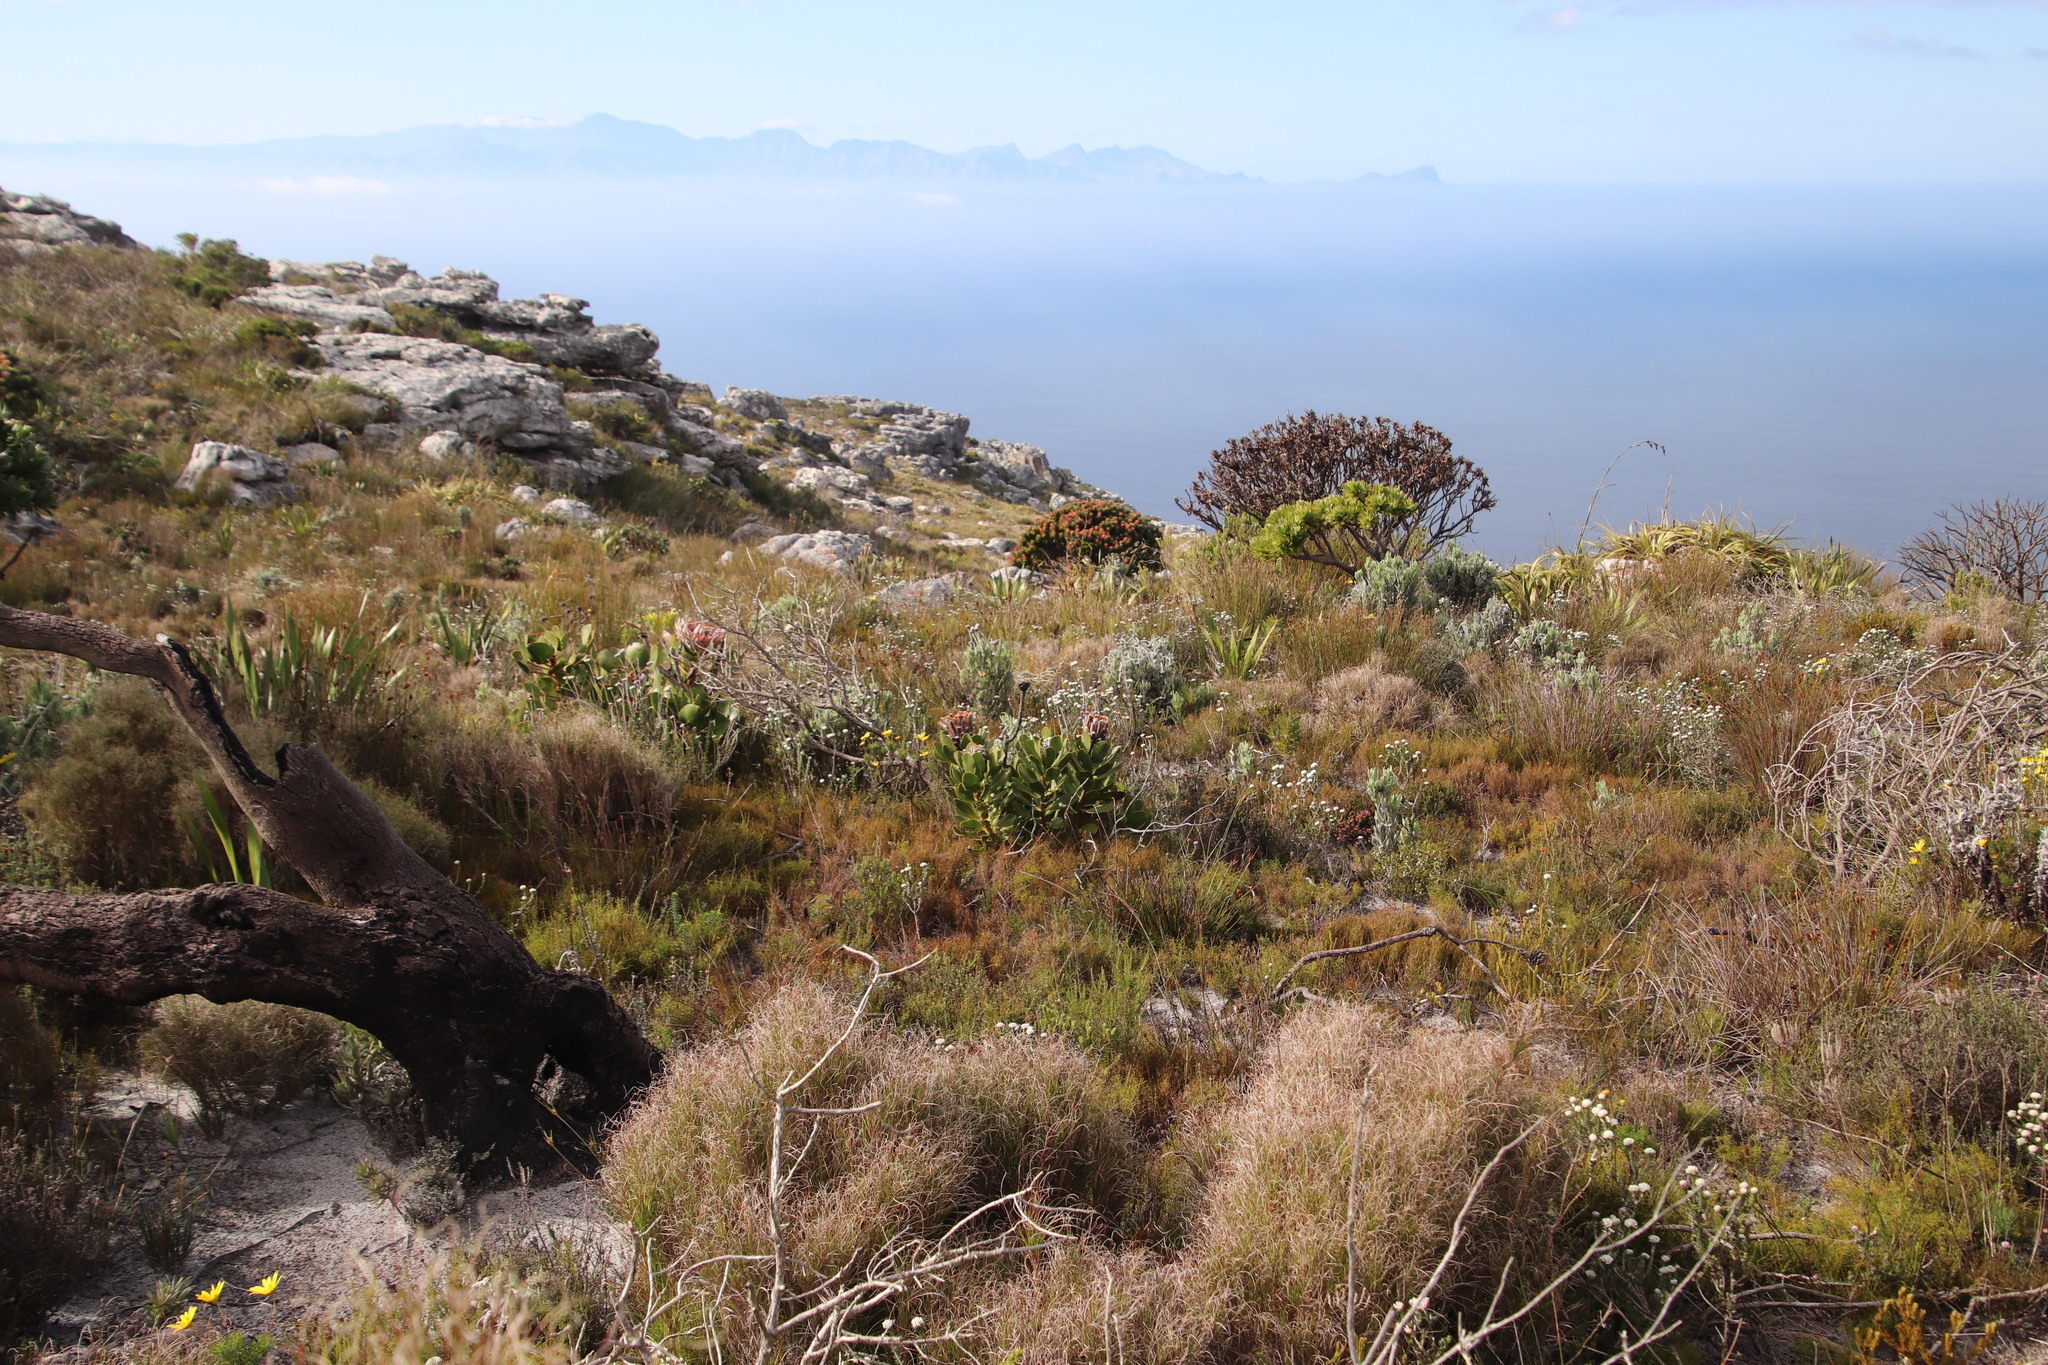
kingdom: Plantae
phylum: Tracheophyta
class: Magnoliopsida
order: Proteales
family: Proteaceae
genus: Mimetes
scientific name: Mimetes fimbriifolius
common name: Fringed bottlebrush
